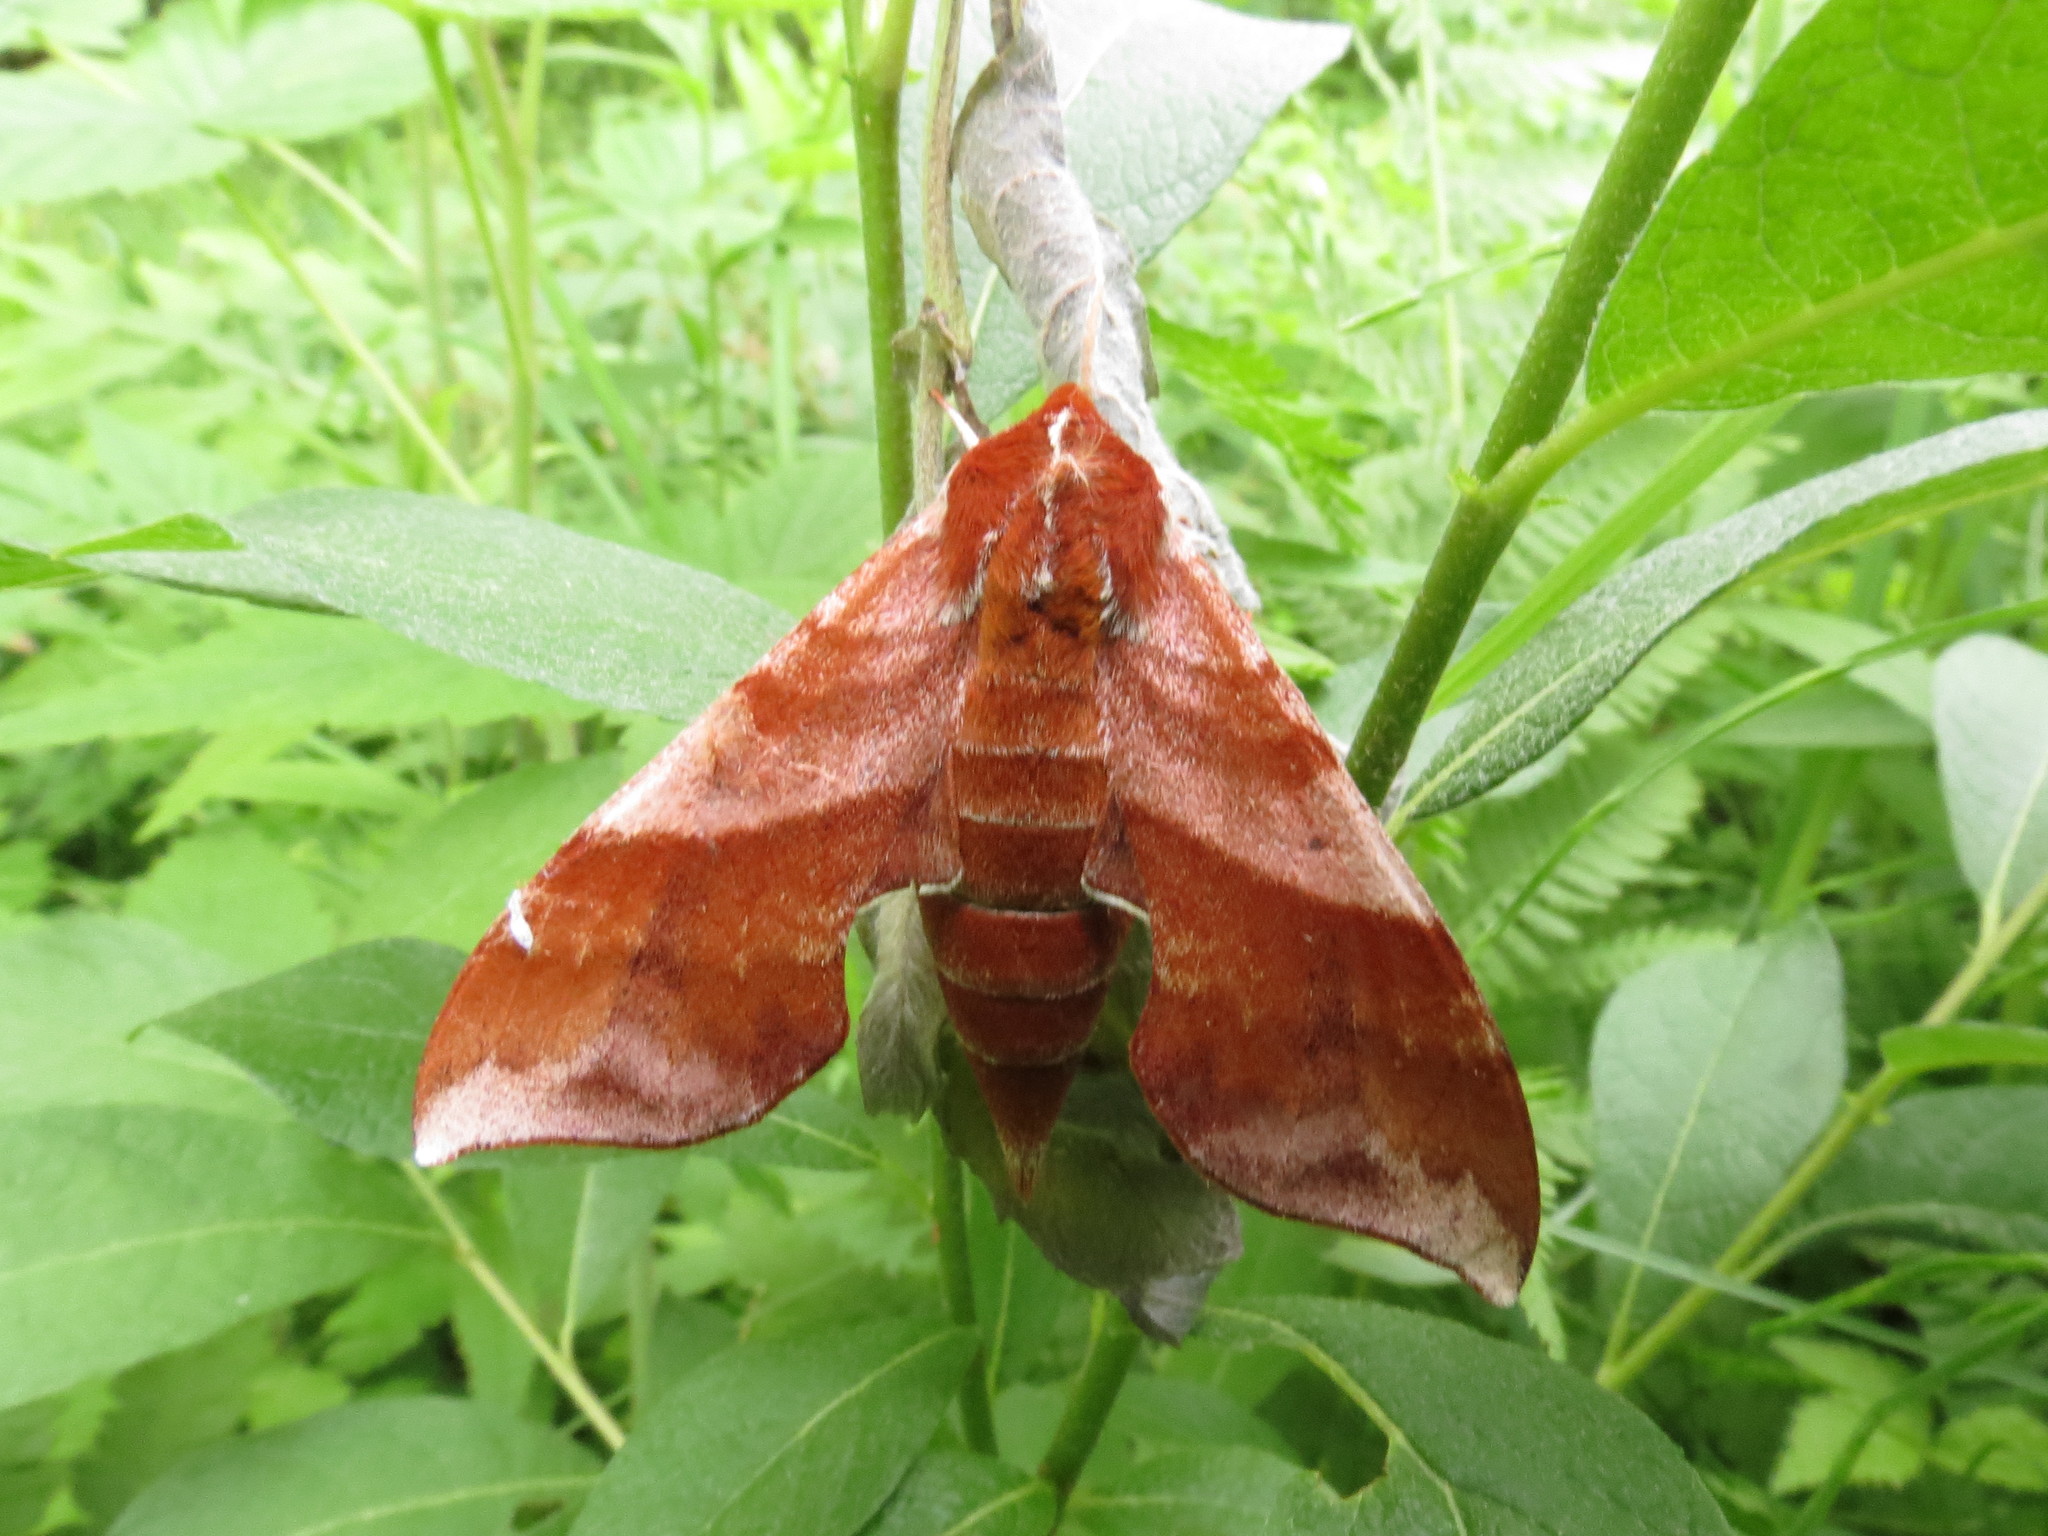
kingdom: Animalia
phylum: Arthropoda
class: Insecta
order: Lepidoptera
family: Sphingidae
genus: Darapsa
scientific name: Darapsa choerilus
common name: Azalea sphinx
